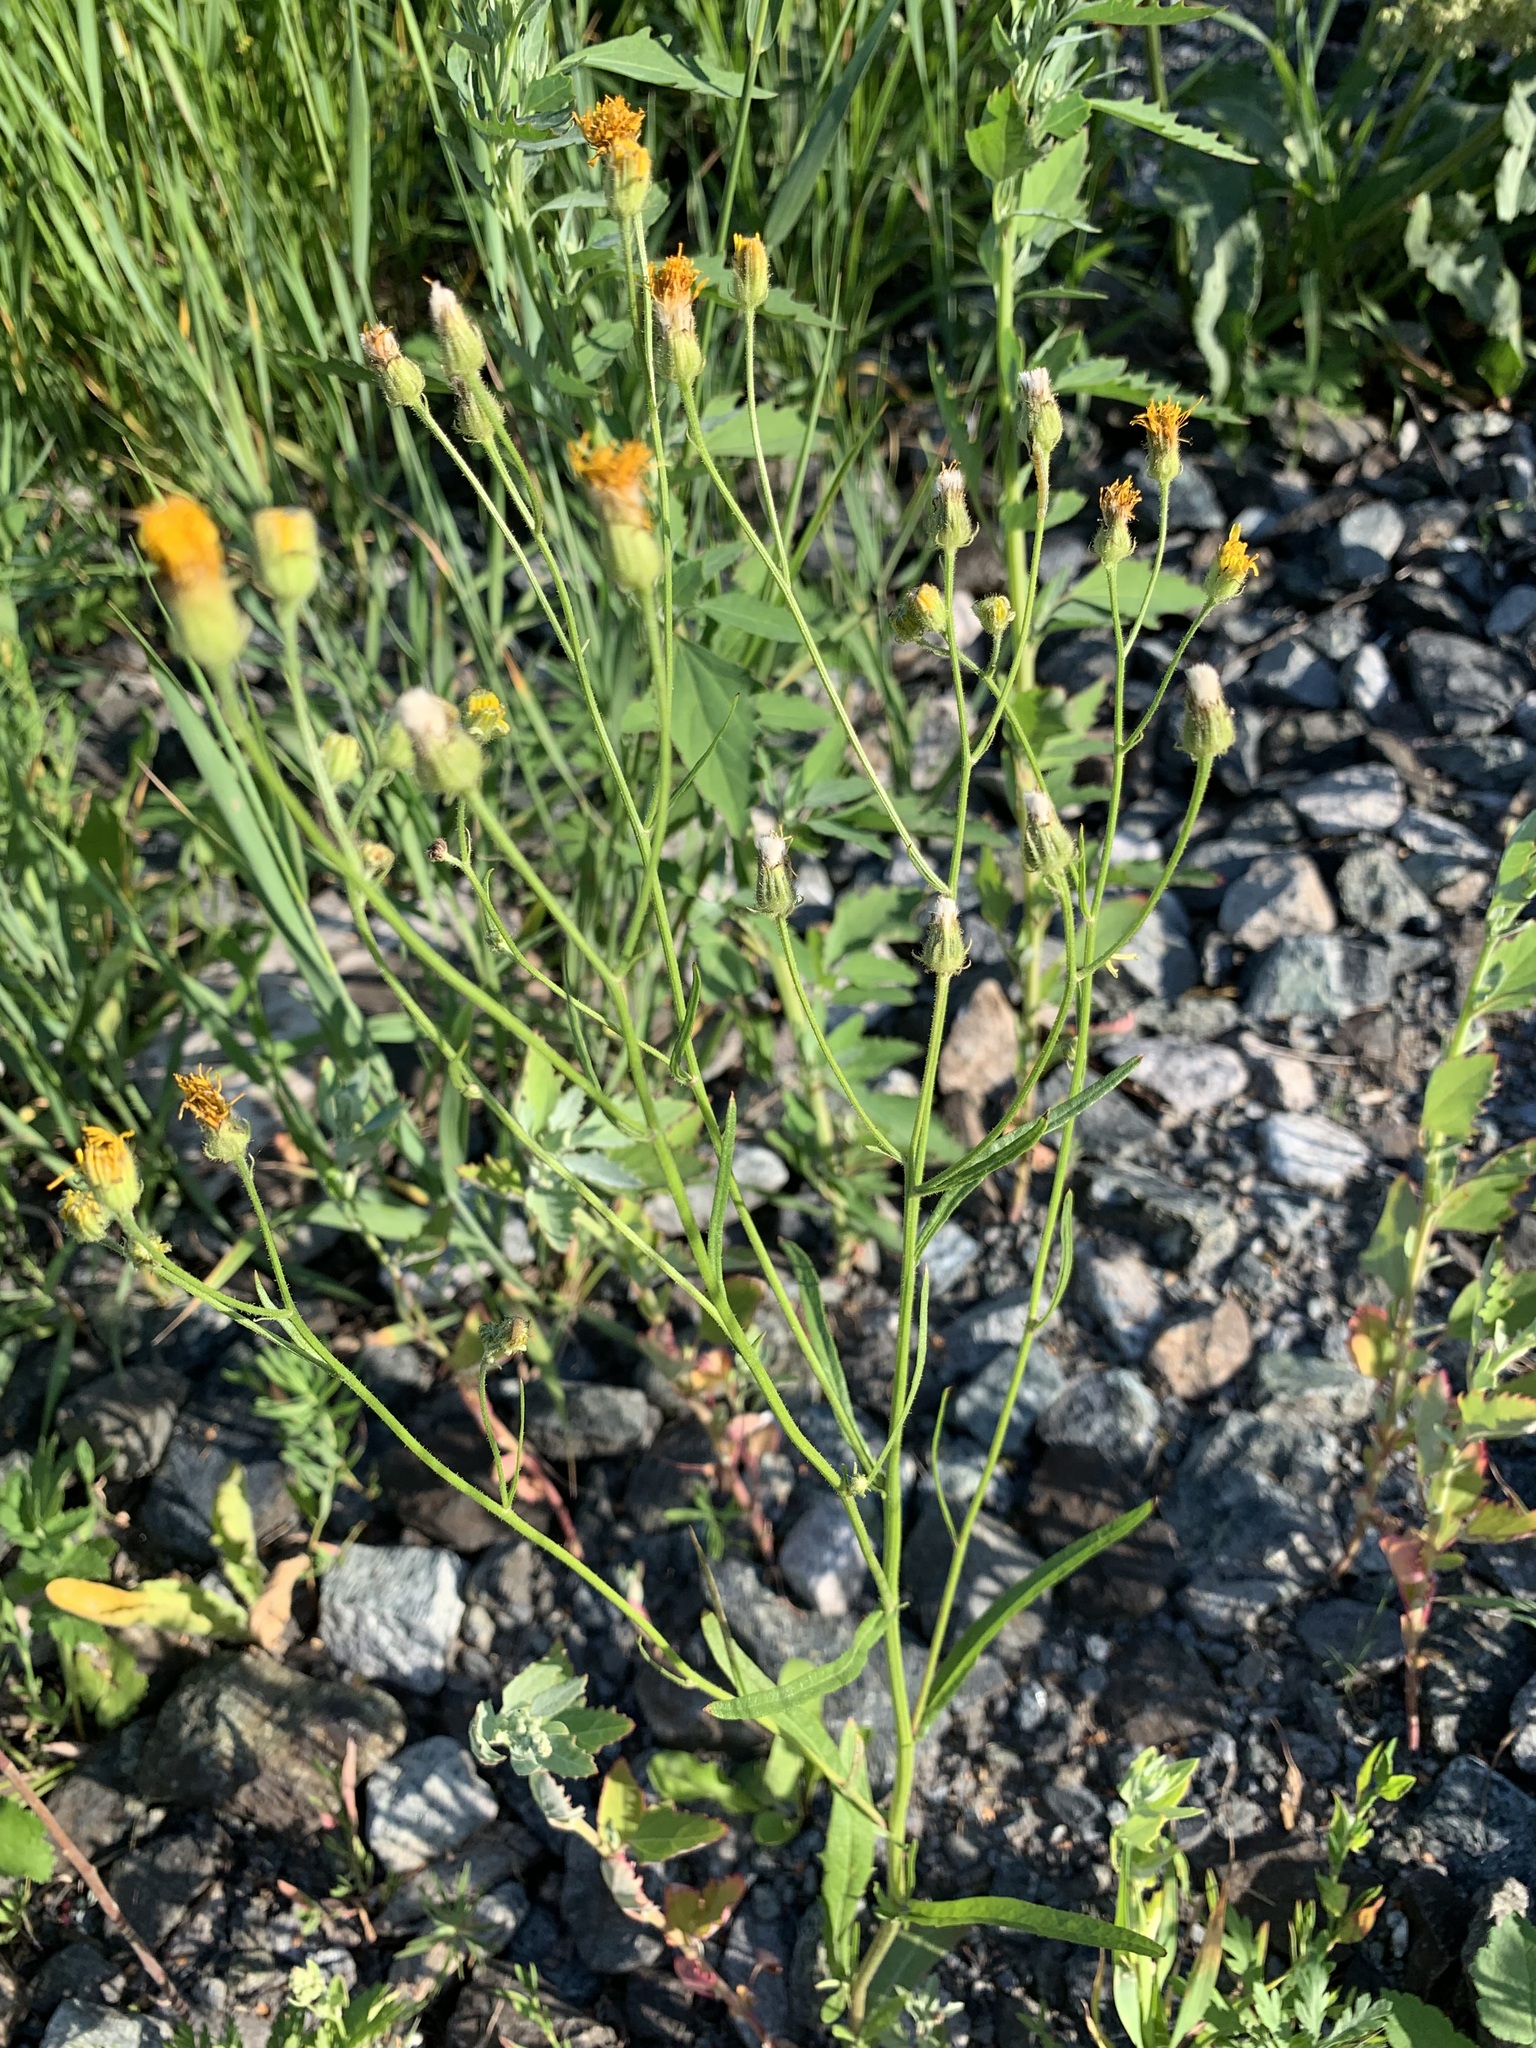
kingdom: Plantae
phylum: Tracheophyta
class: Magnoliopsida
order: Asterales
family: Asteraceae
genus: Crepis
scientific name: Crepis tectorum
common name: Narrow-leaved hawk's-beard
